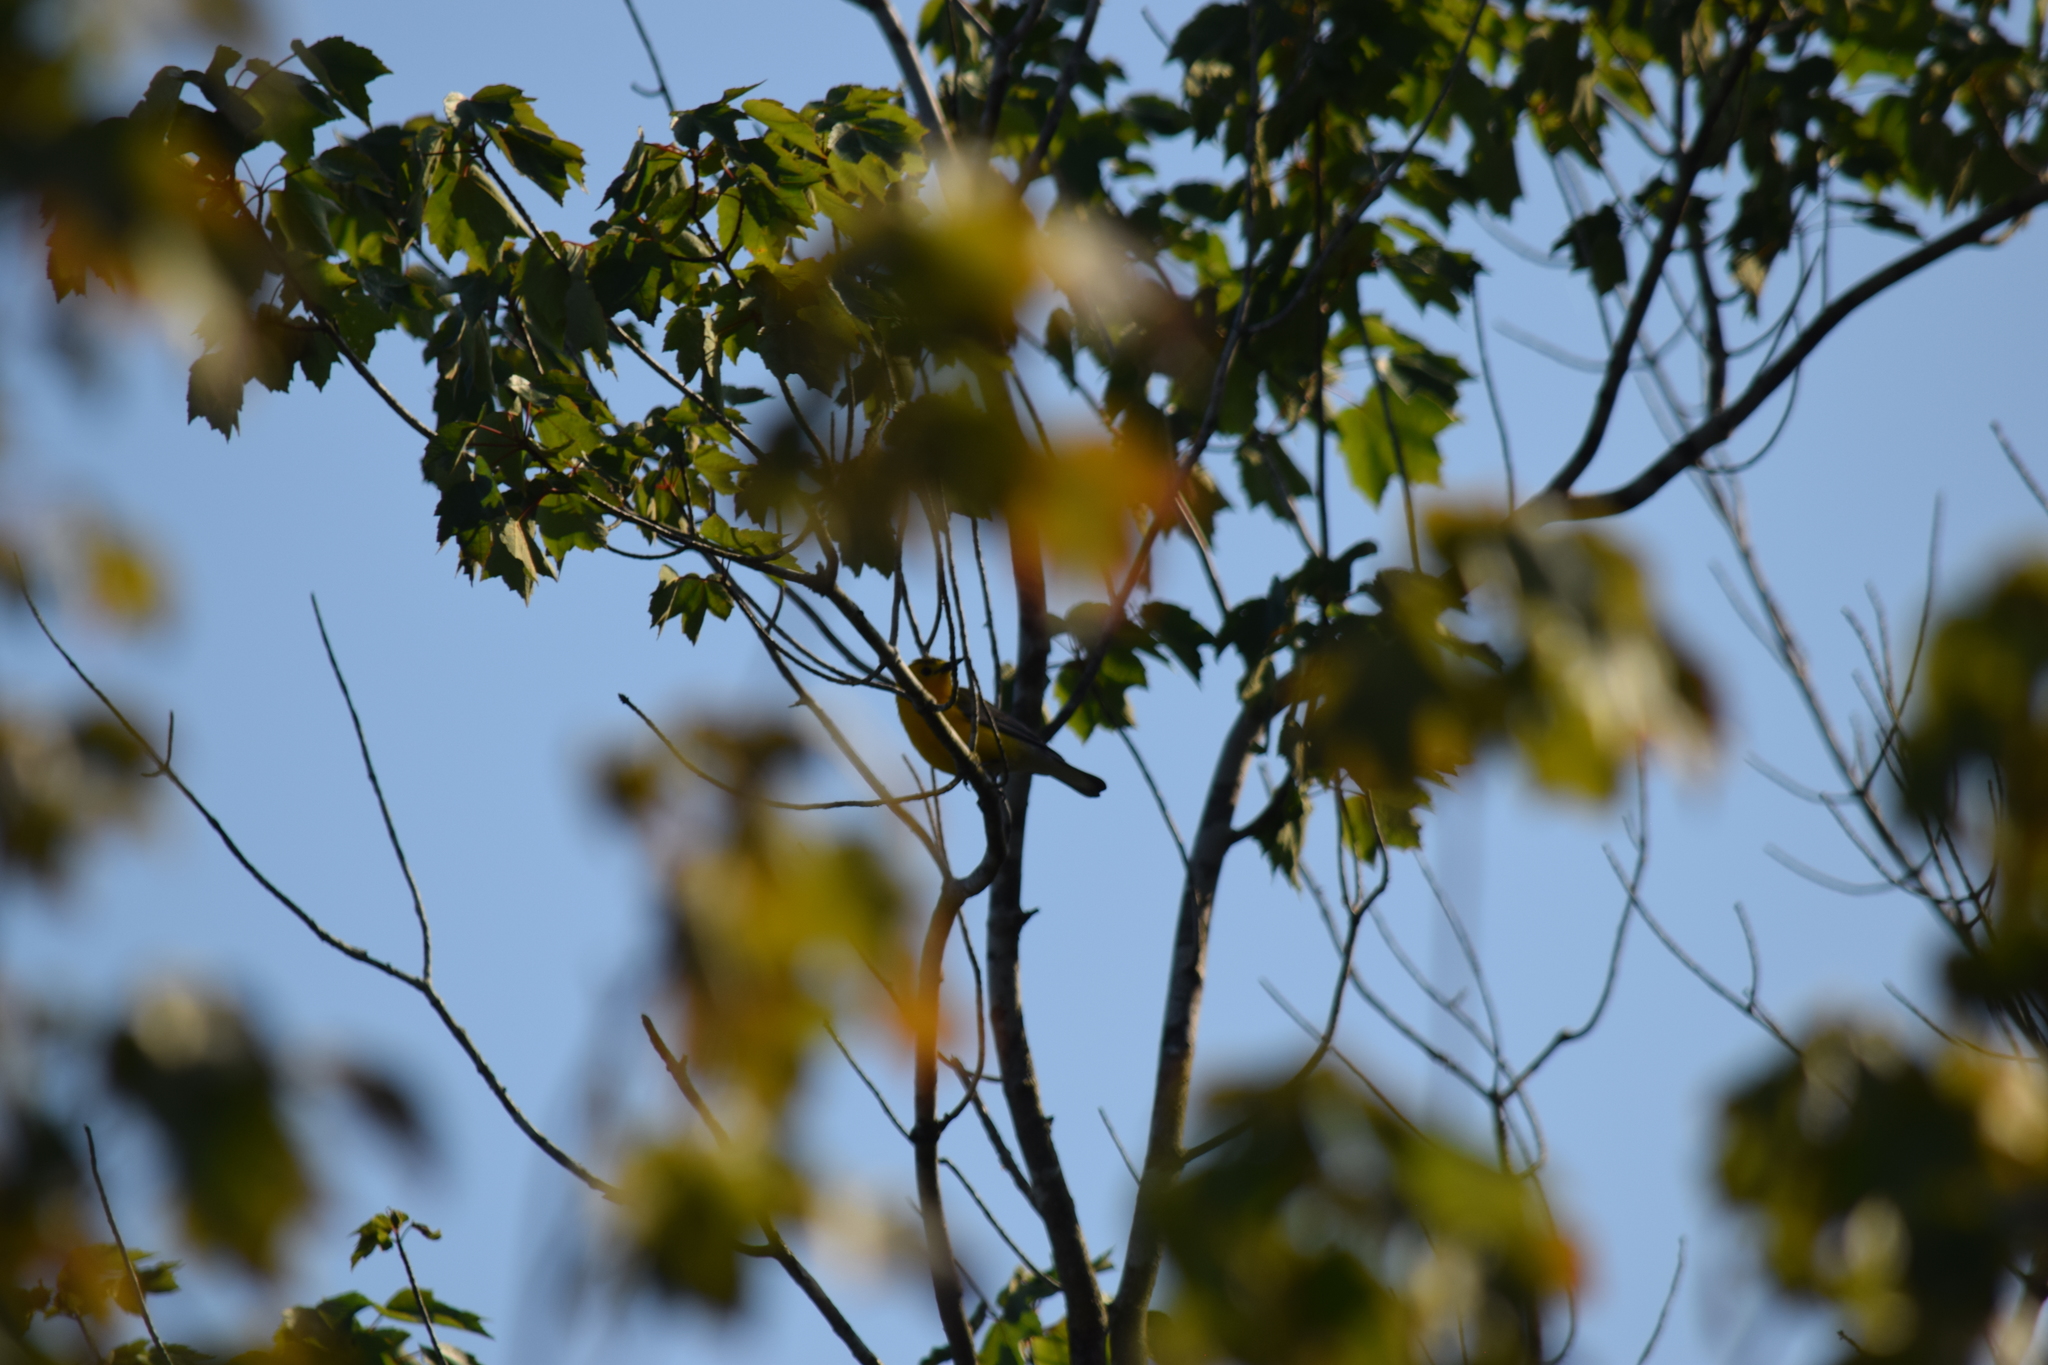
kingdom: Animalia
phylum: Chordata
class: Aves
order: Passeriformes
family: Parulidae
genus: Protonotaria
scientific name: Protonotaria citrea
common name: Prothonotary warbler
